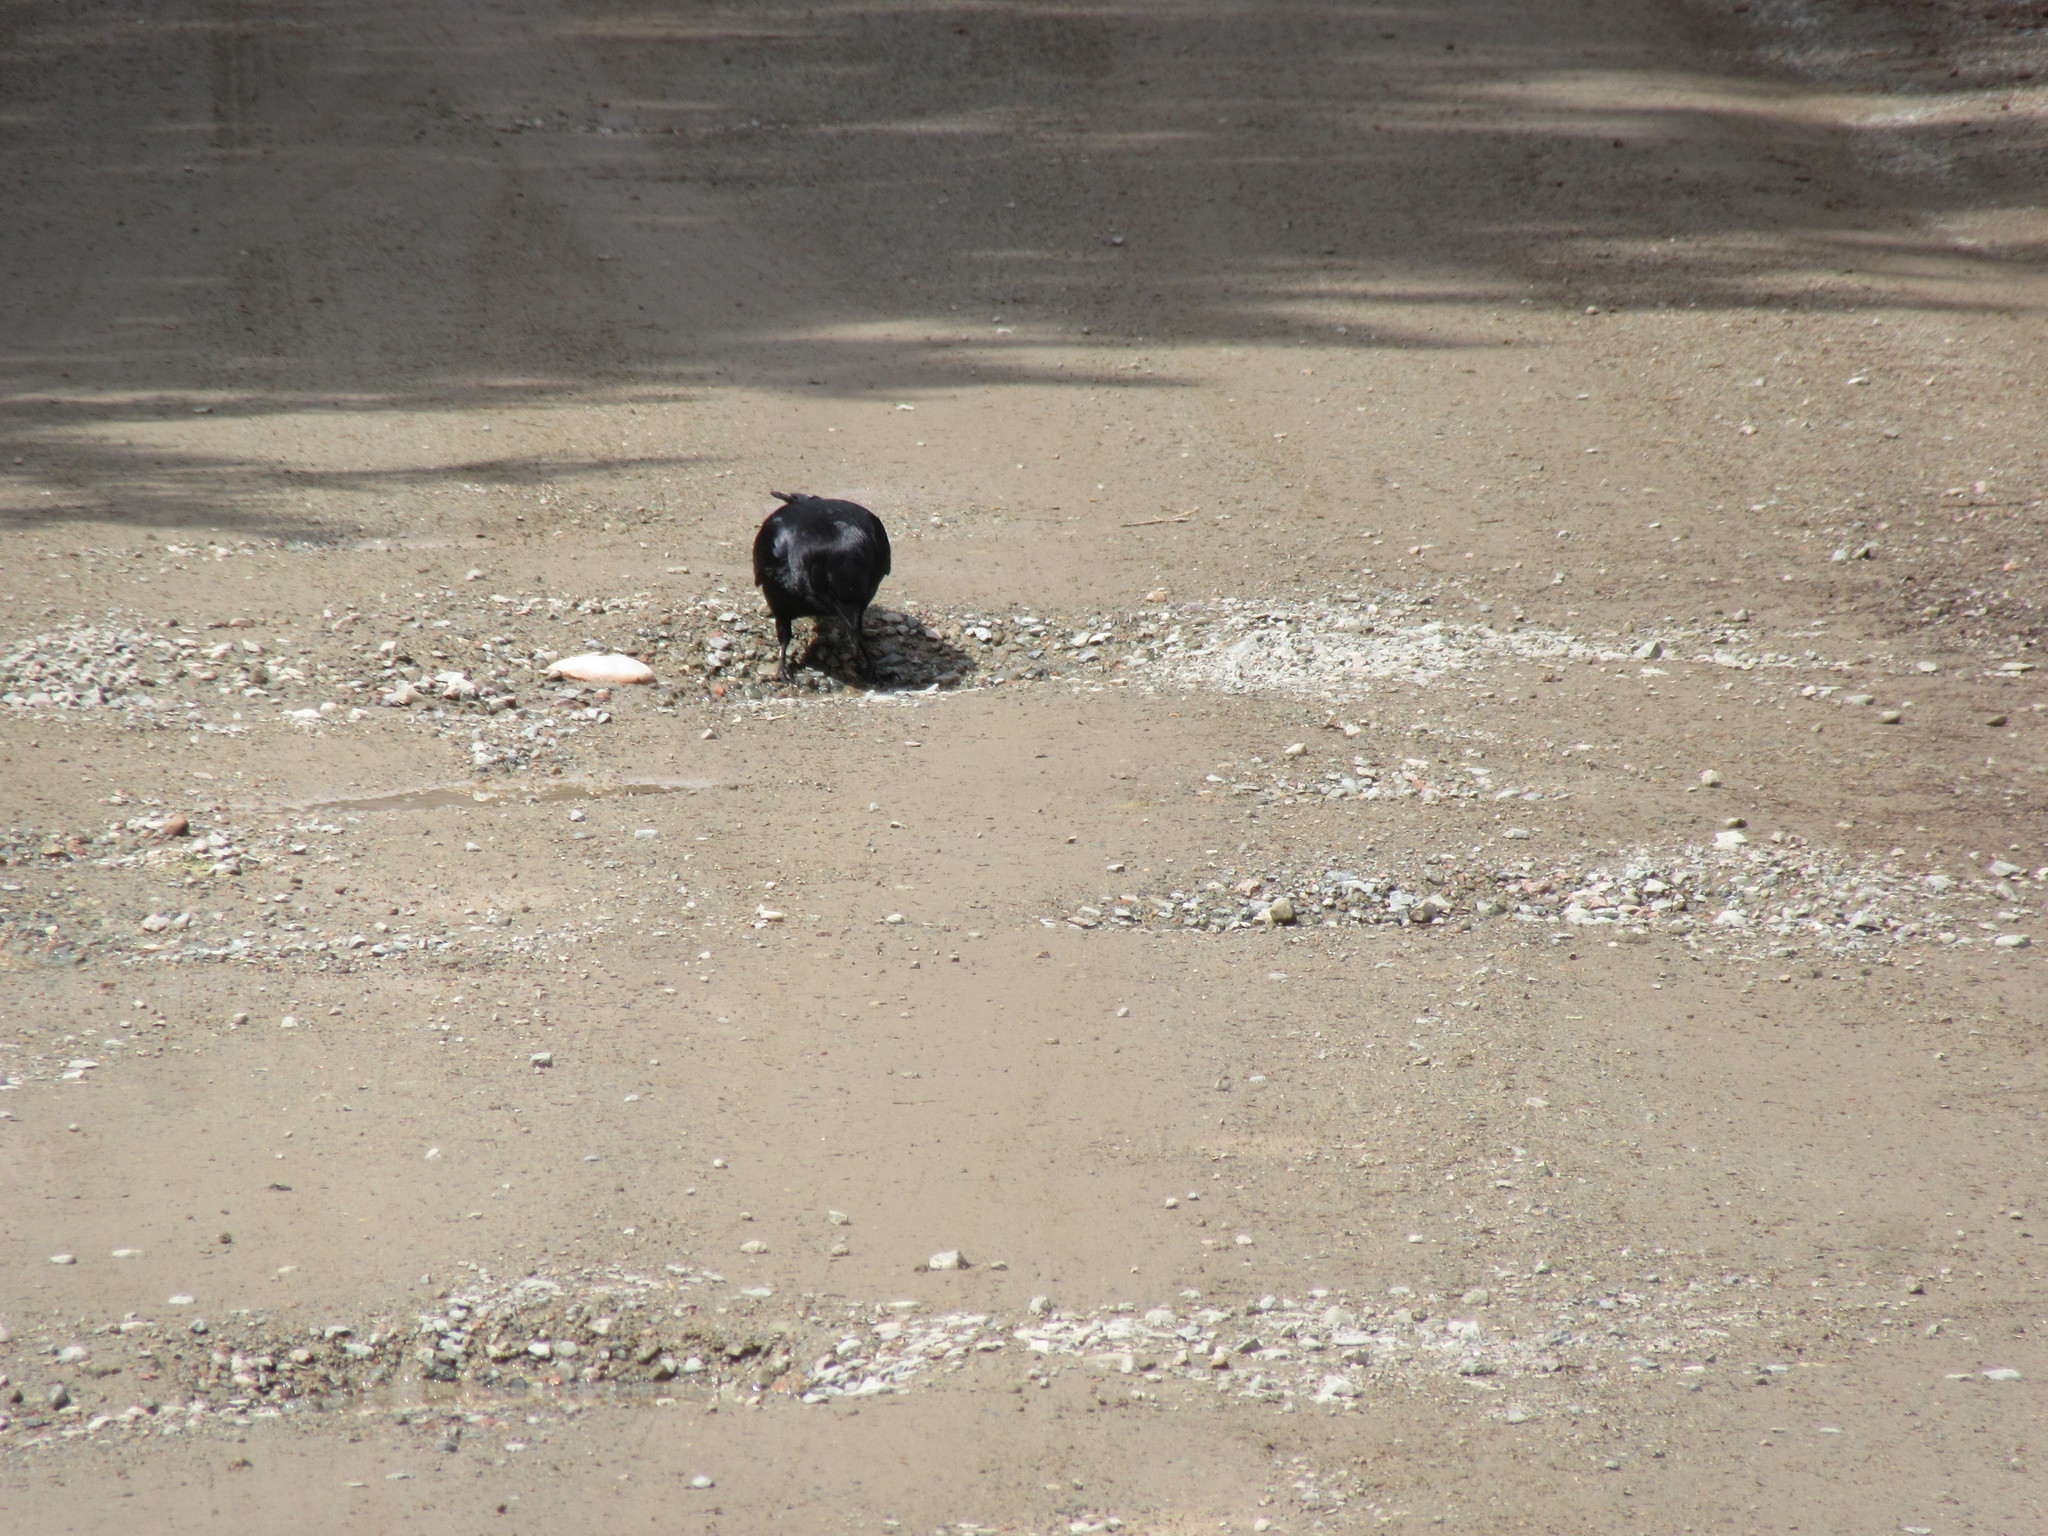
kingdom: Animalia
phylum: Chordata
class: Aves
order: Passeriformes
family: Corvidae
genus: Corvus
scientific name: Corvus brachyrhynchos
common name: American crow
